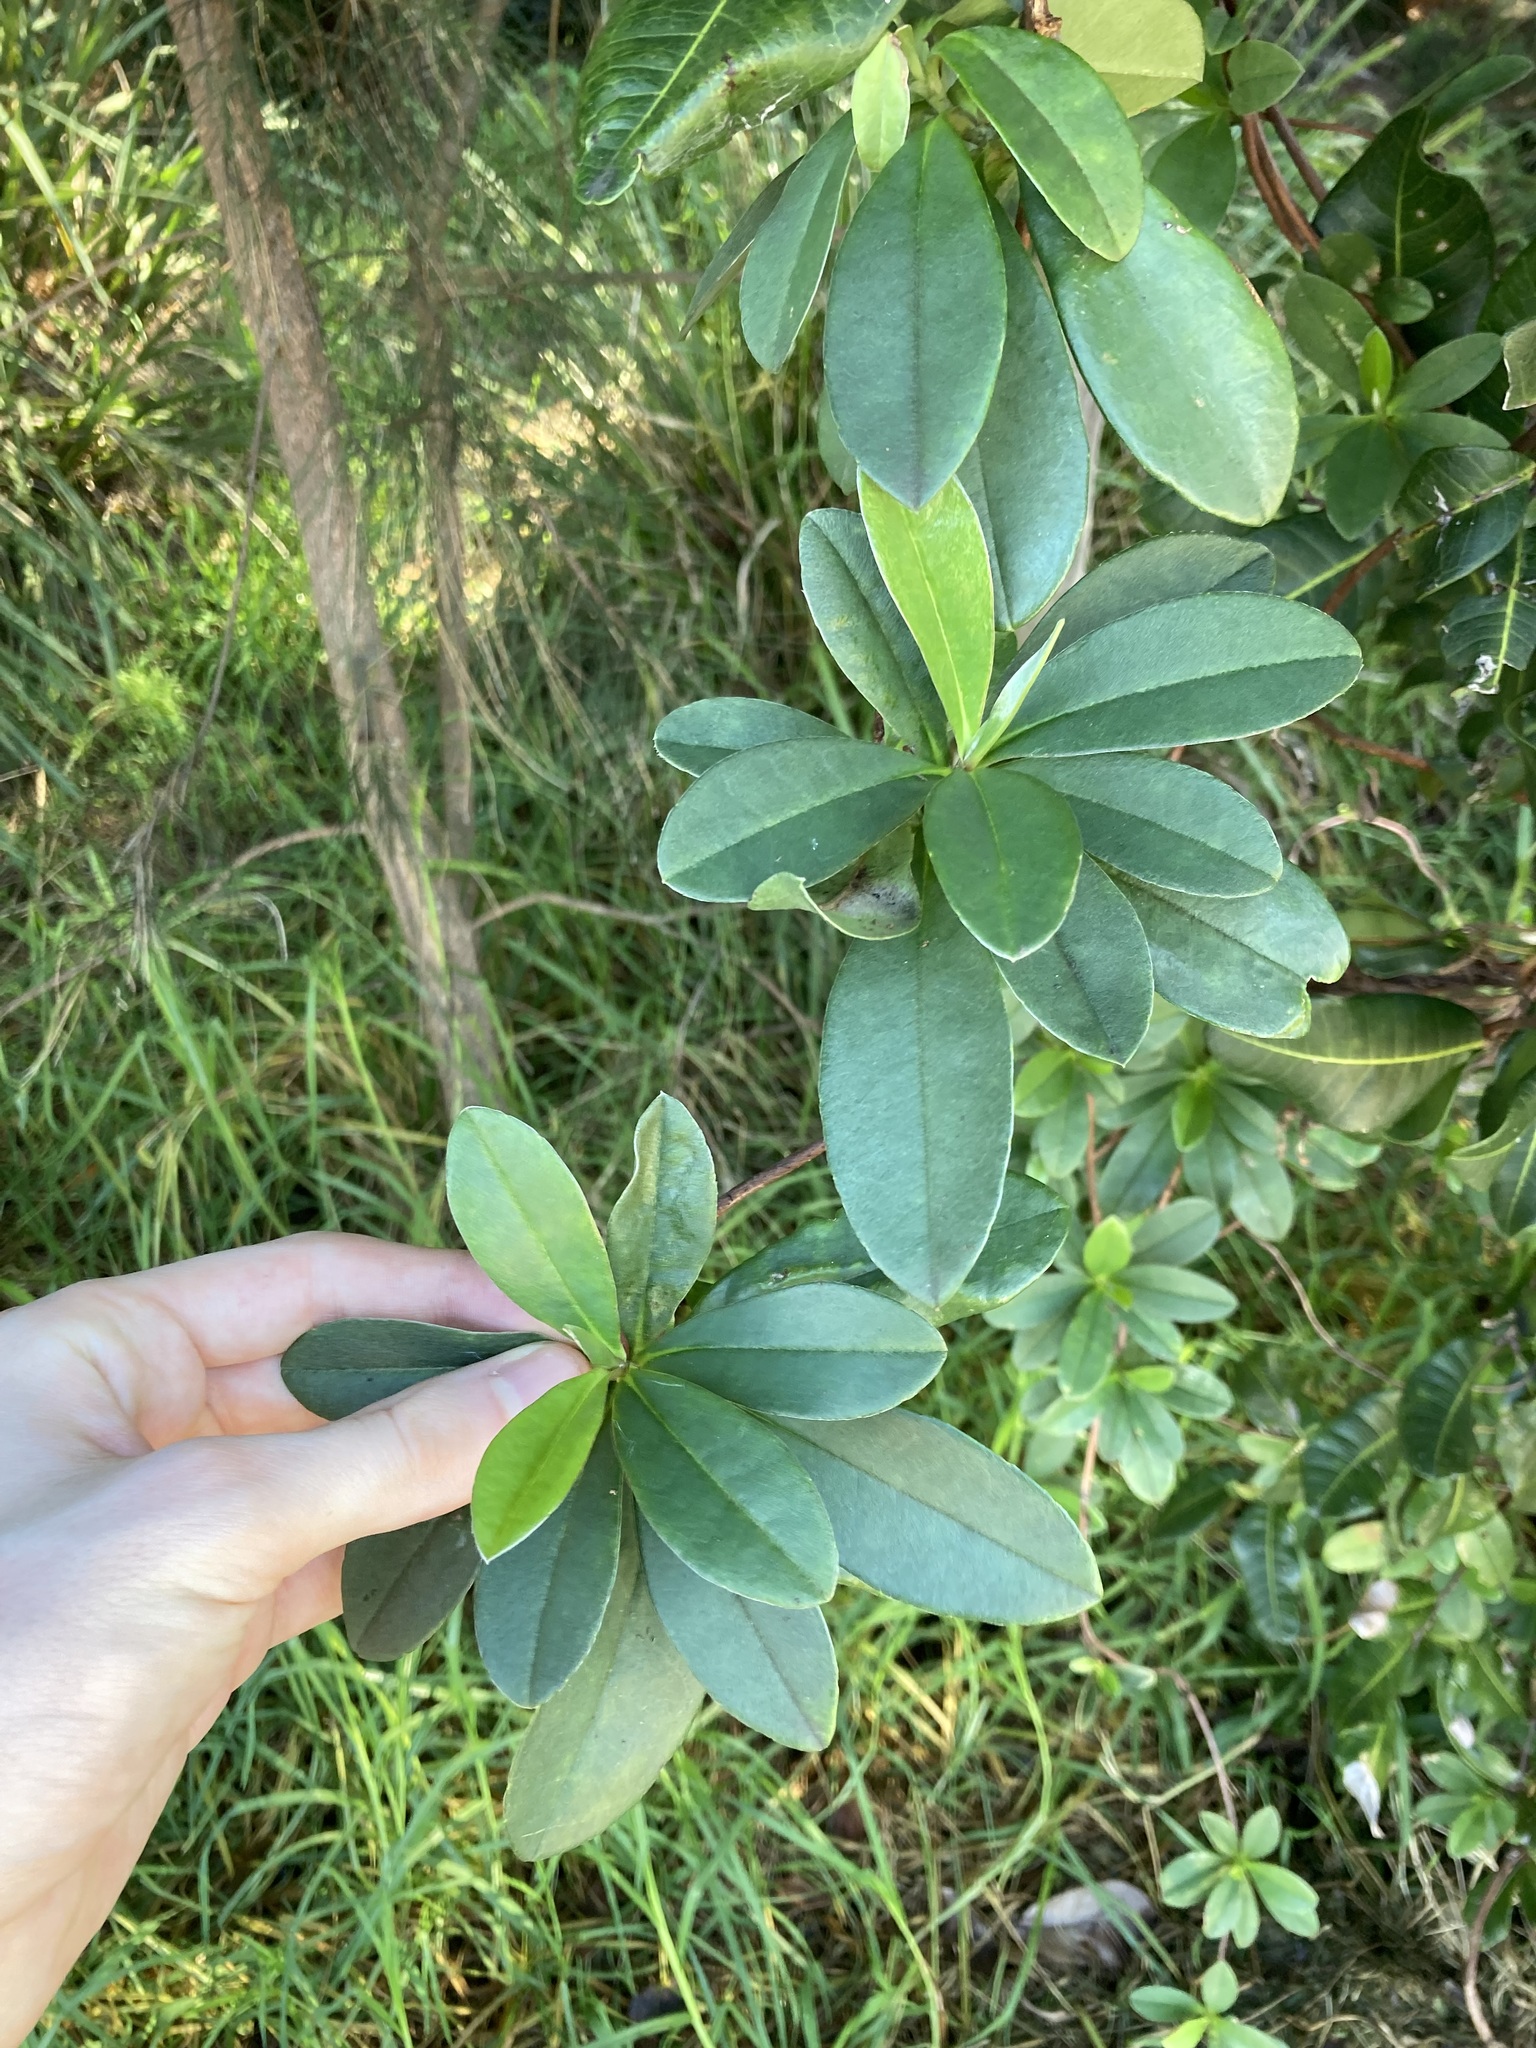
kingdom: Plantae
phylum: Tracheophyta
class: Magnoliopsida
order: Dilleniales
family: Dilleniaceae
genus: Hibbertia
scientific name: Hibbertia scandens
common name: Climbing guinea-flower
